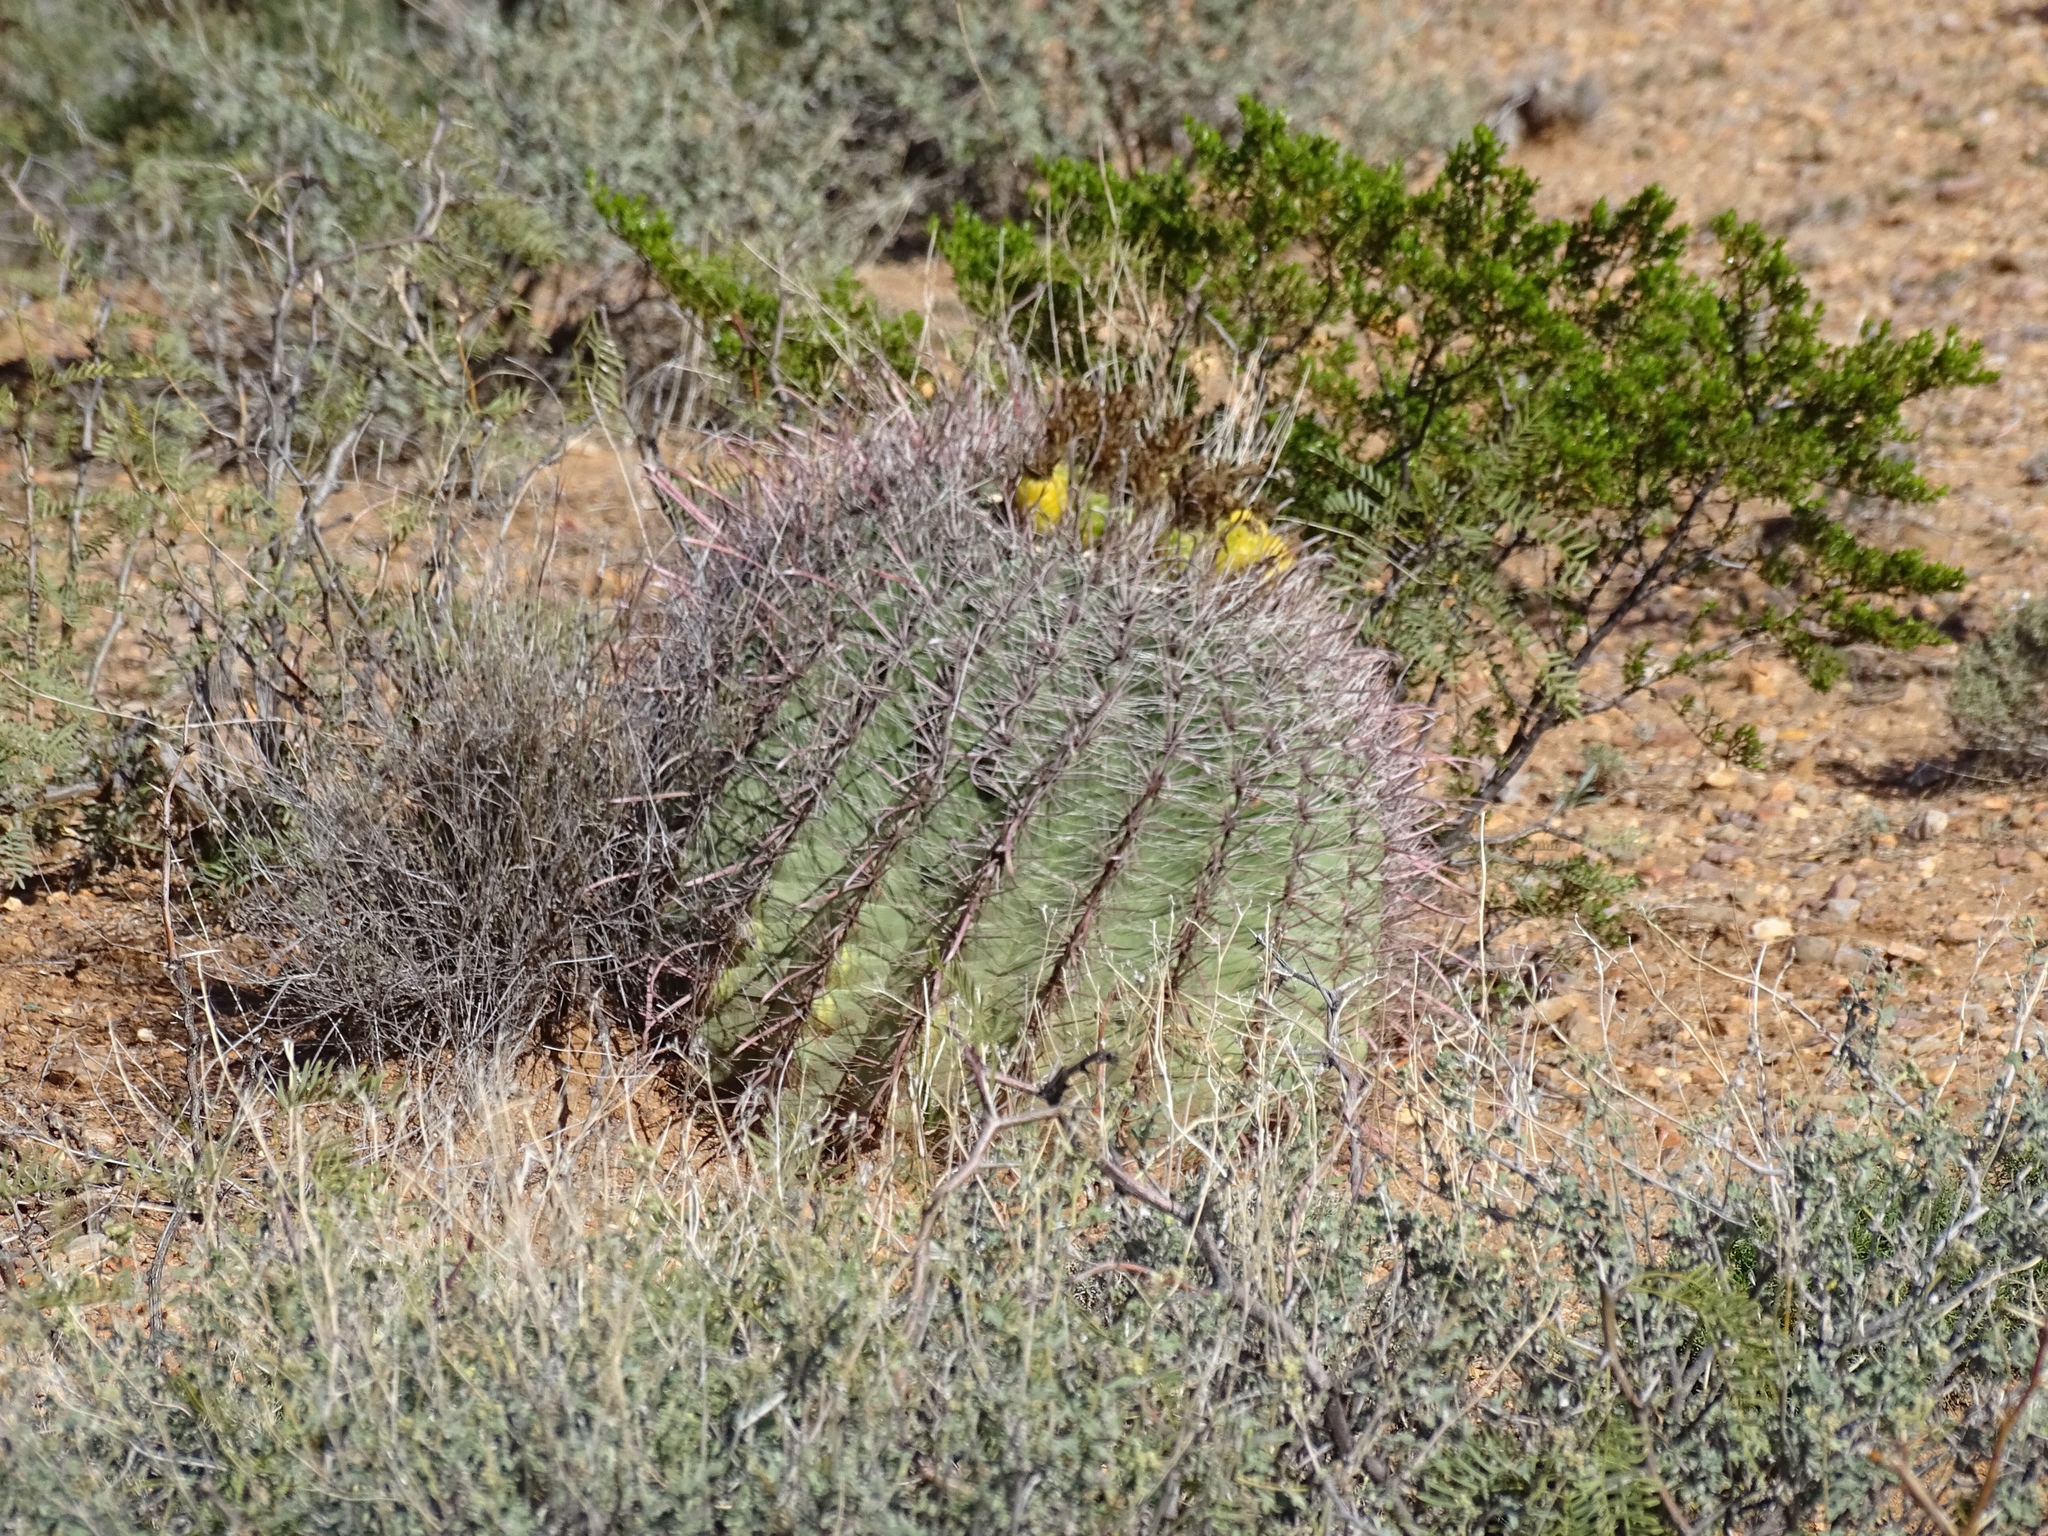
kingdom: Plantae
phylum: Tracheophyta
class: Magnoliopsida
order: Caryophyllales
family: Cactaceae
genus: Ferocactus
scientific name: Ferocactus wislizeni
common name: Candy barrel cactus
